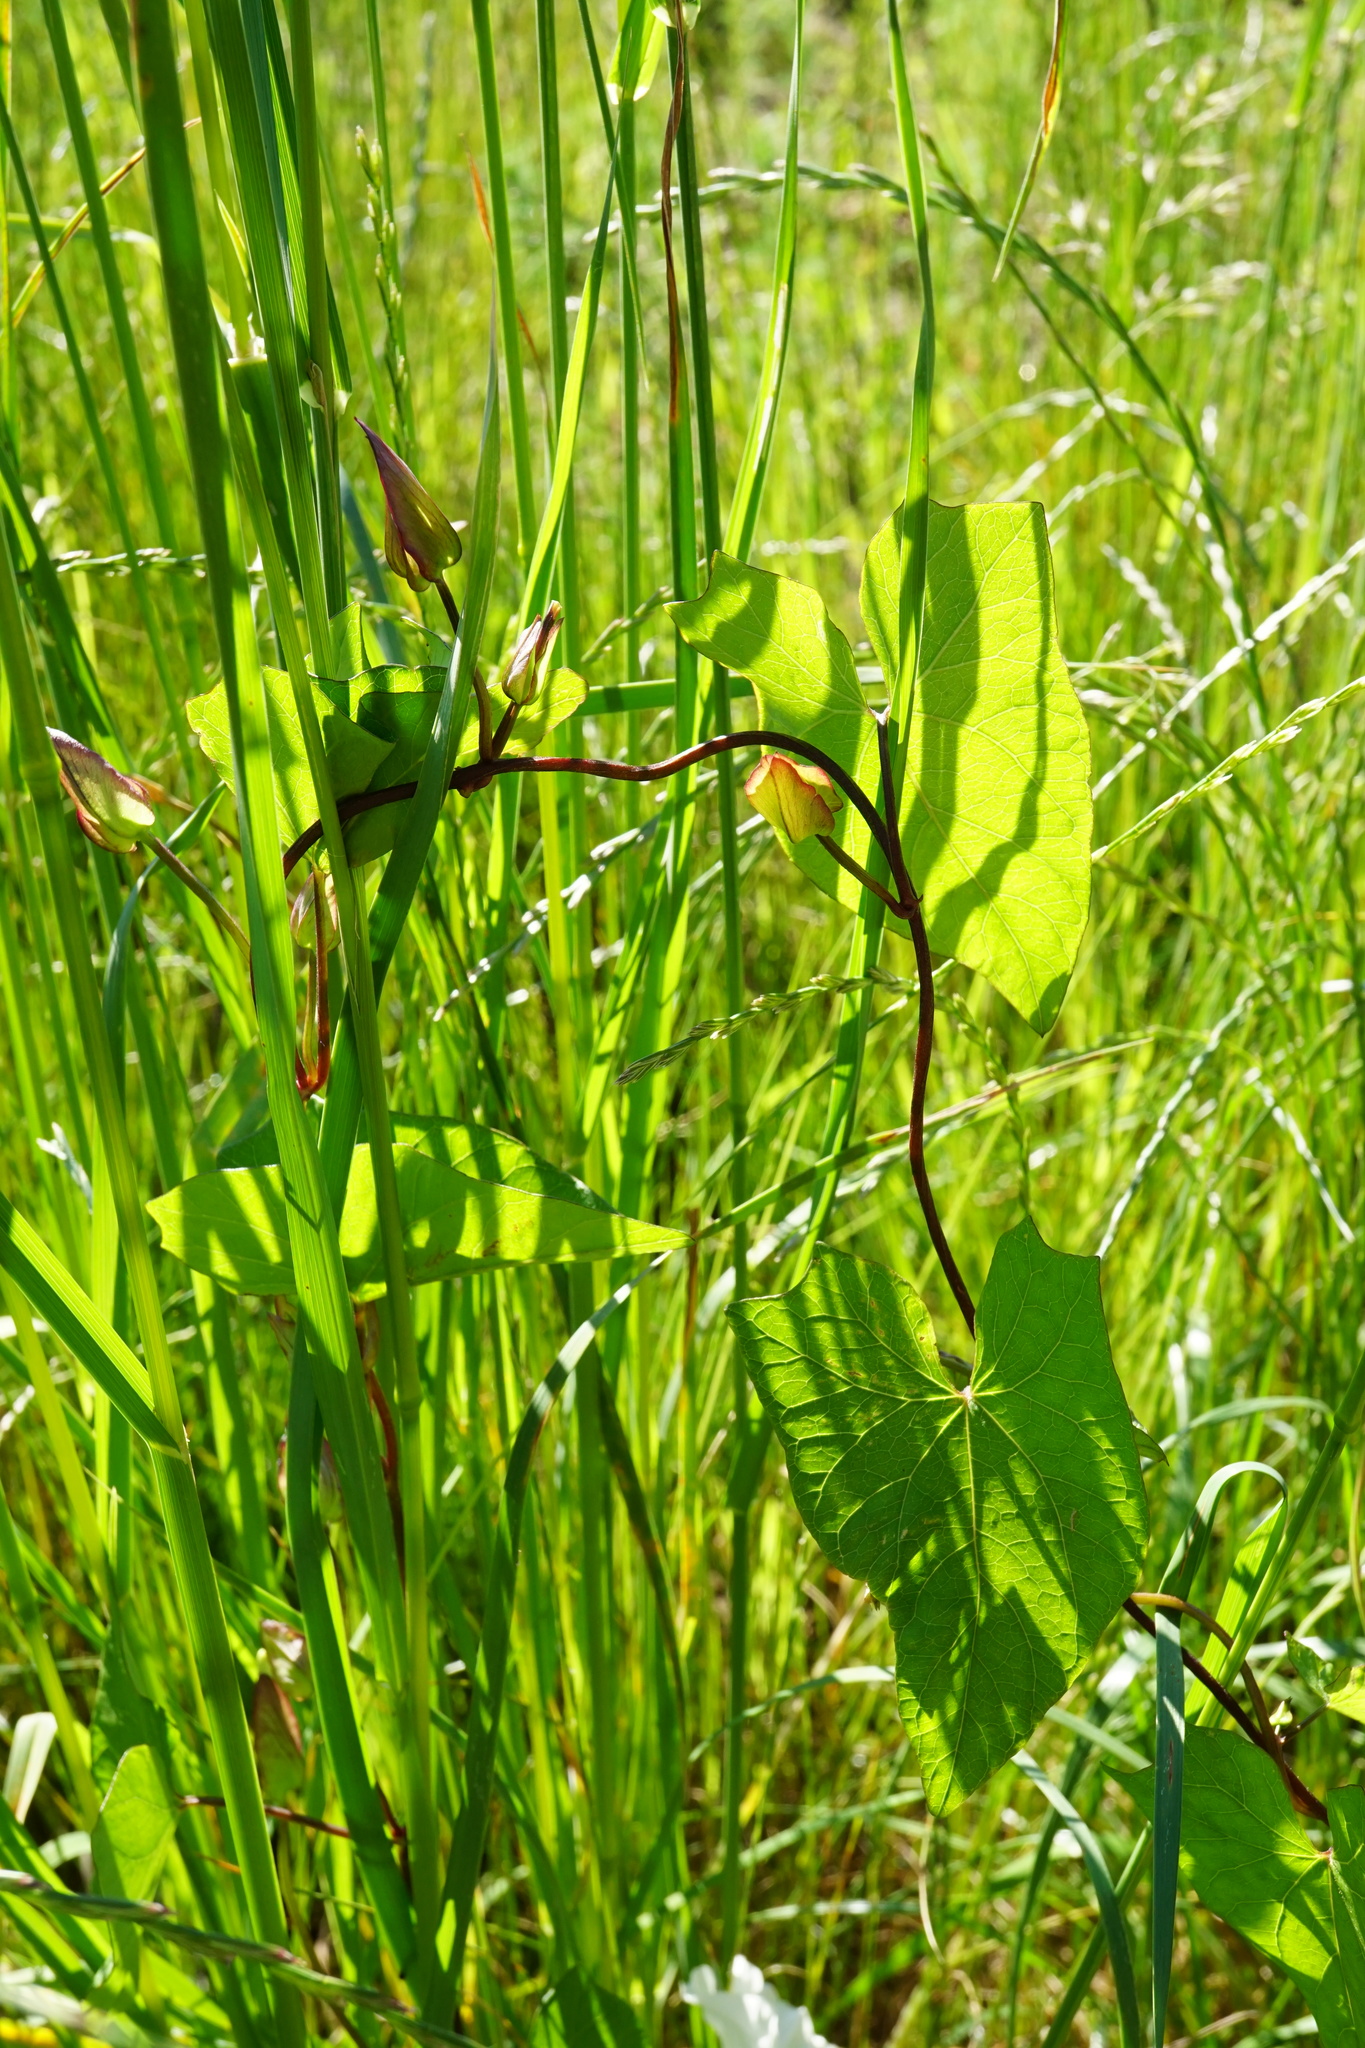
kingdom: Plantae
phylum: Tracheophyta
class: Magnoliopsida
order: Solanales
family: Convolvulaceae
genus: Calystegia
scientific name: Calystegia sepium
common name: Hedge bindweed
